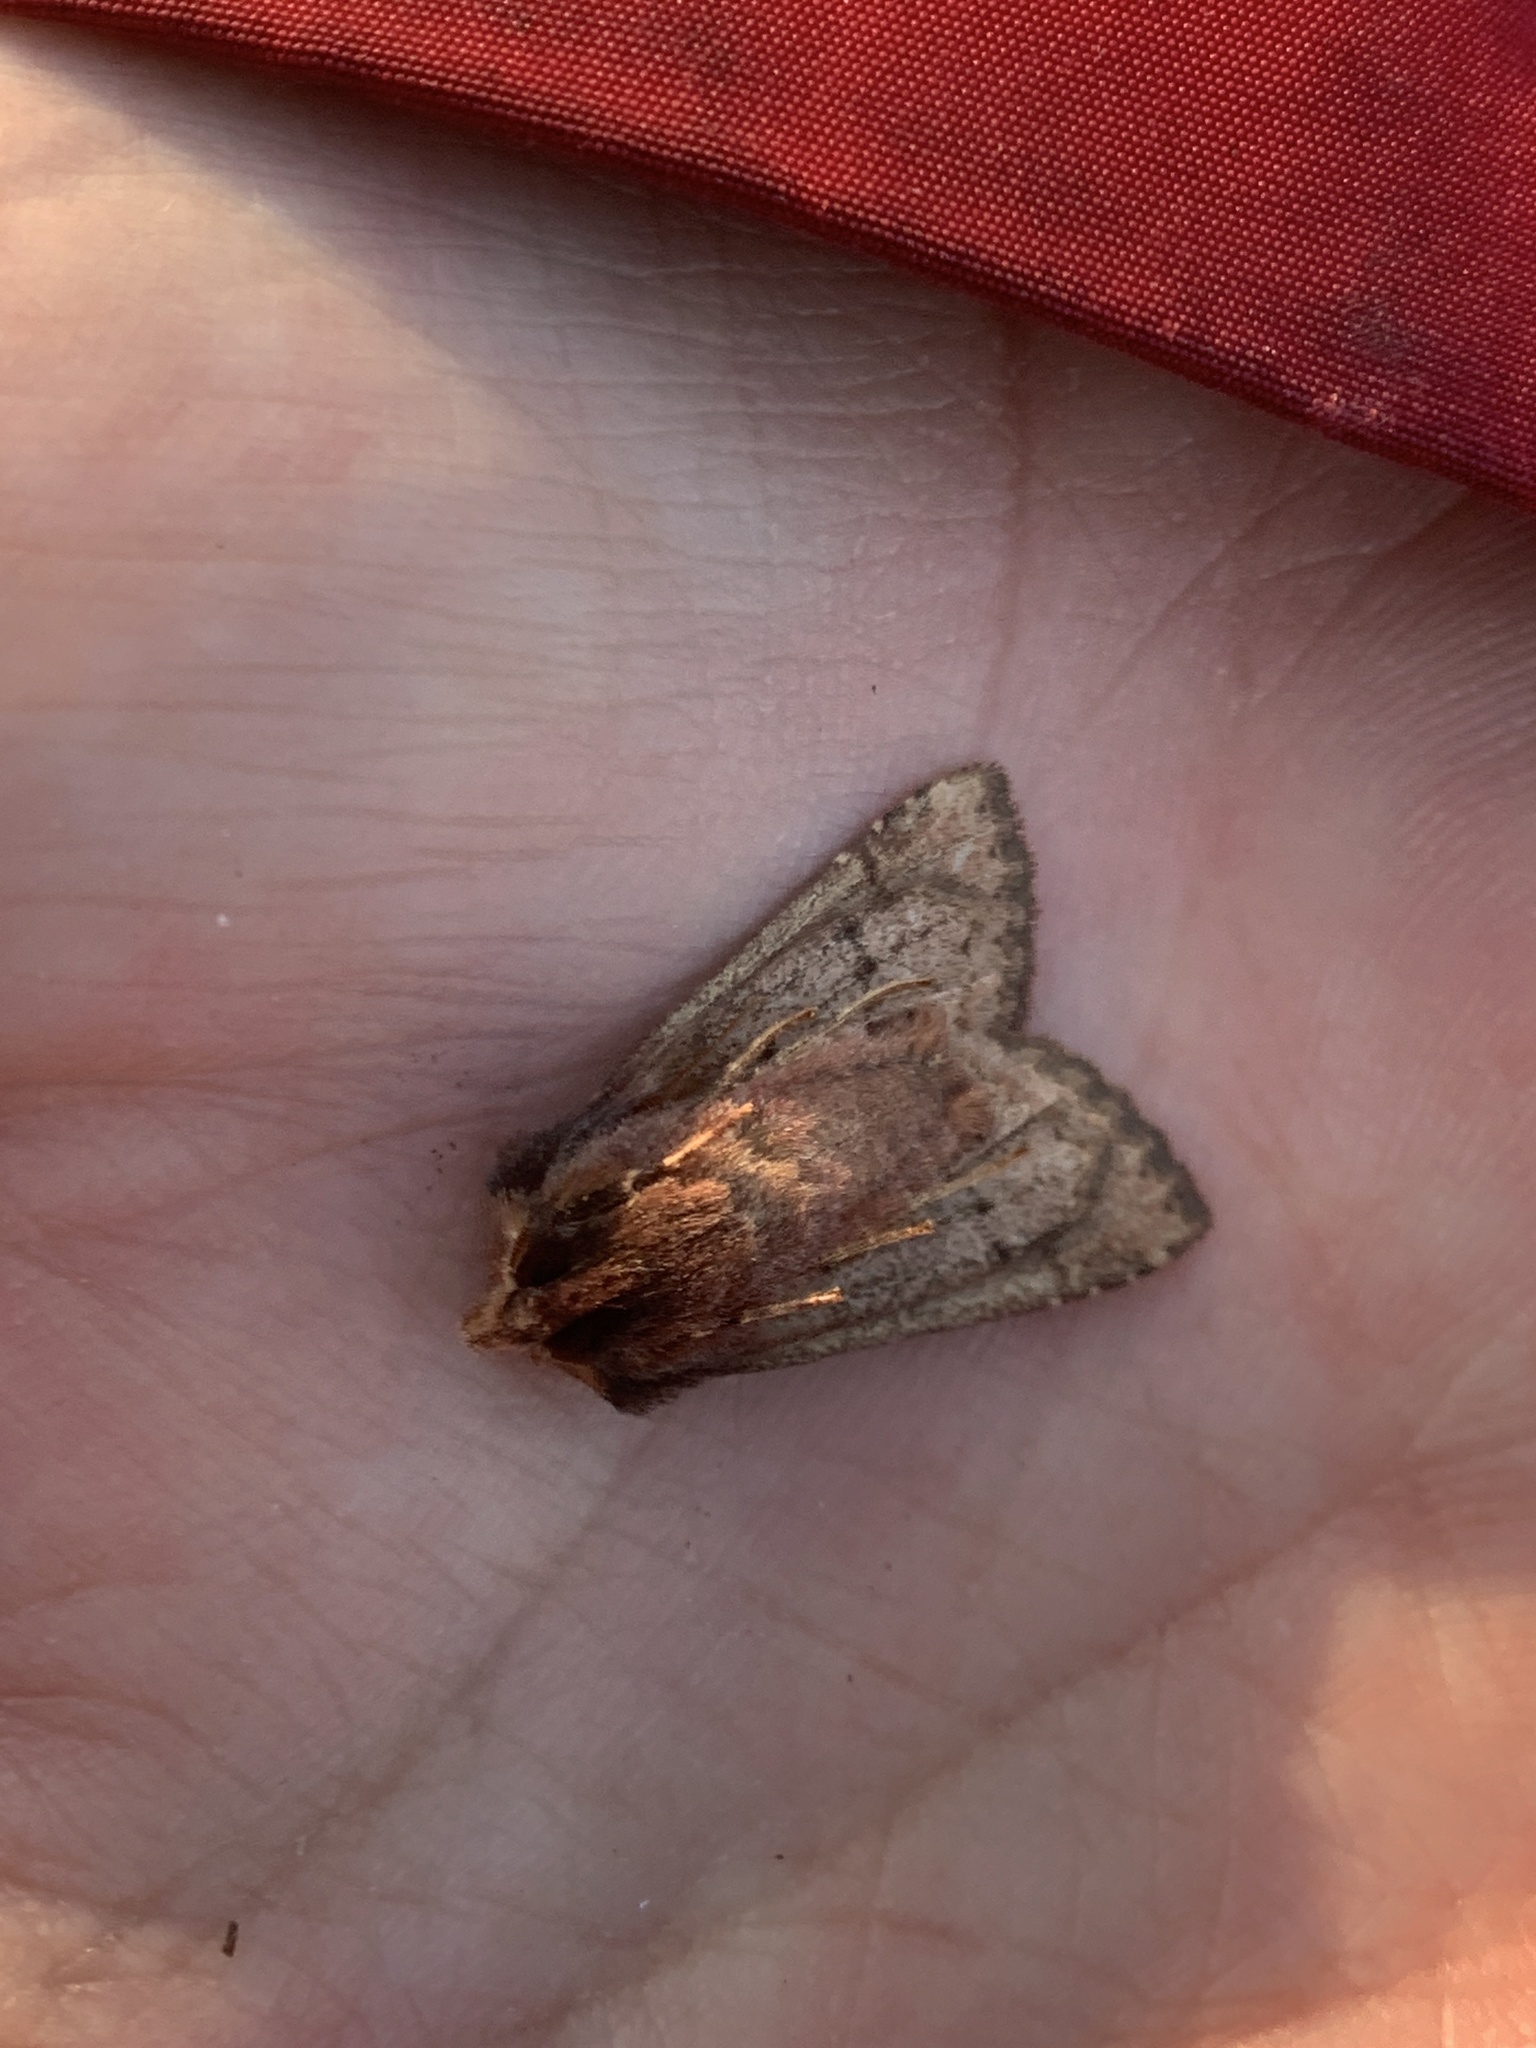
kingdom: Animalia
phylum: Arthropoda
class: Insecta
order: Lepidoptera
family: Noctuidae
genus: Orthosia
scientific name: Orthosia praeses
